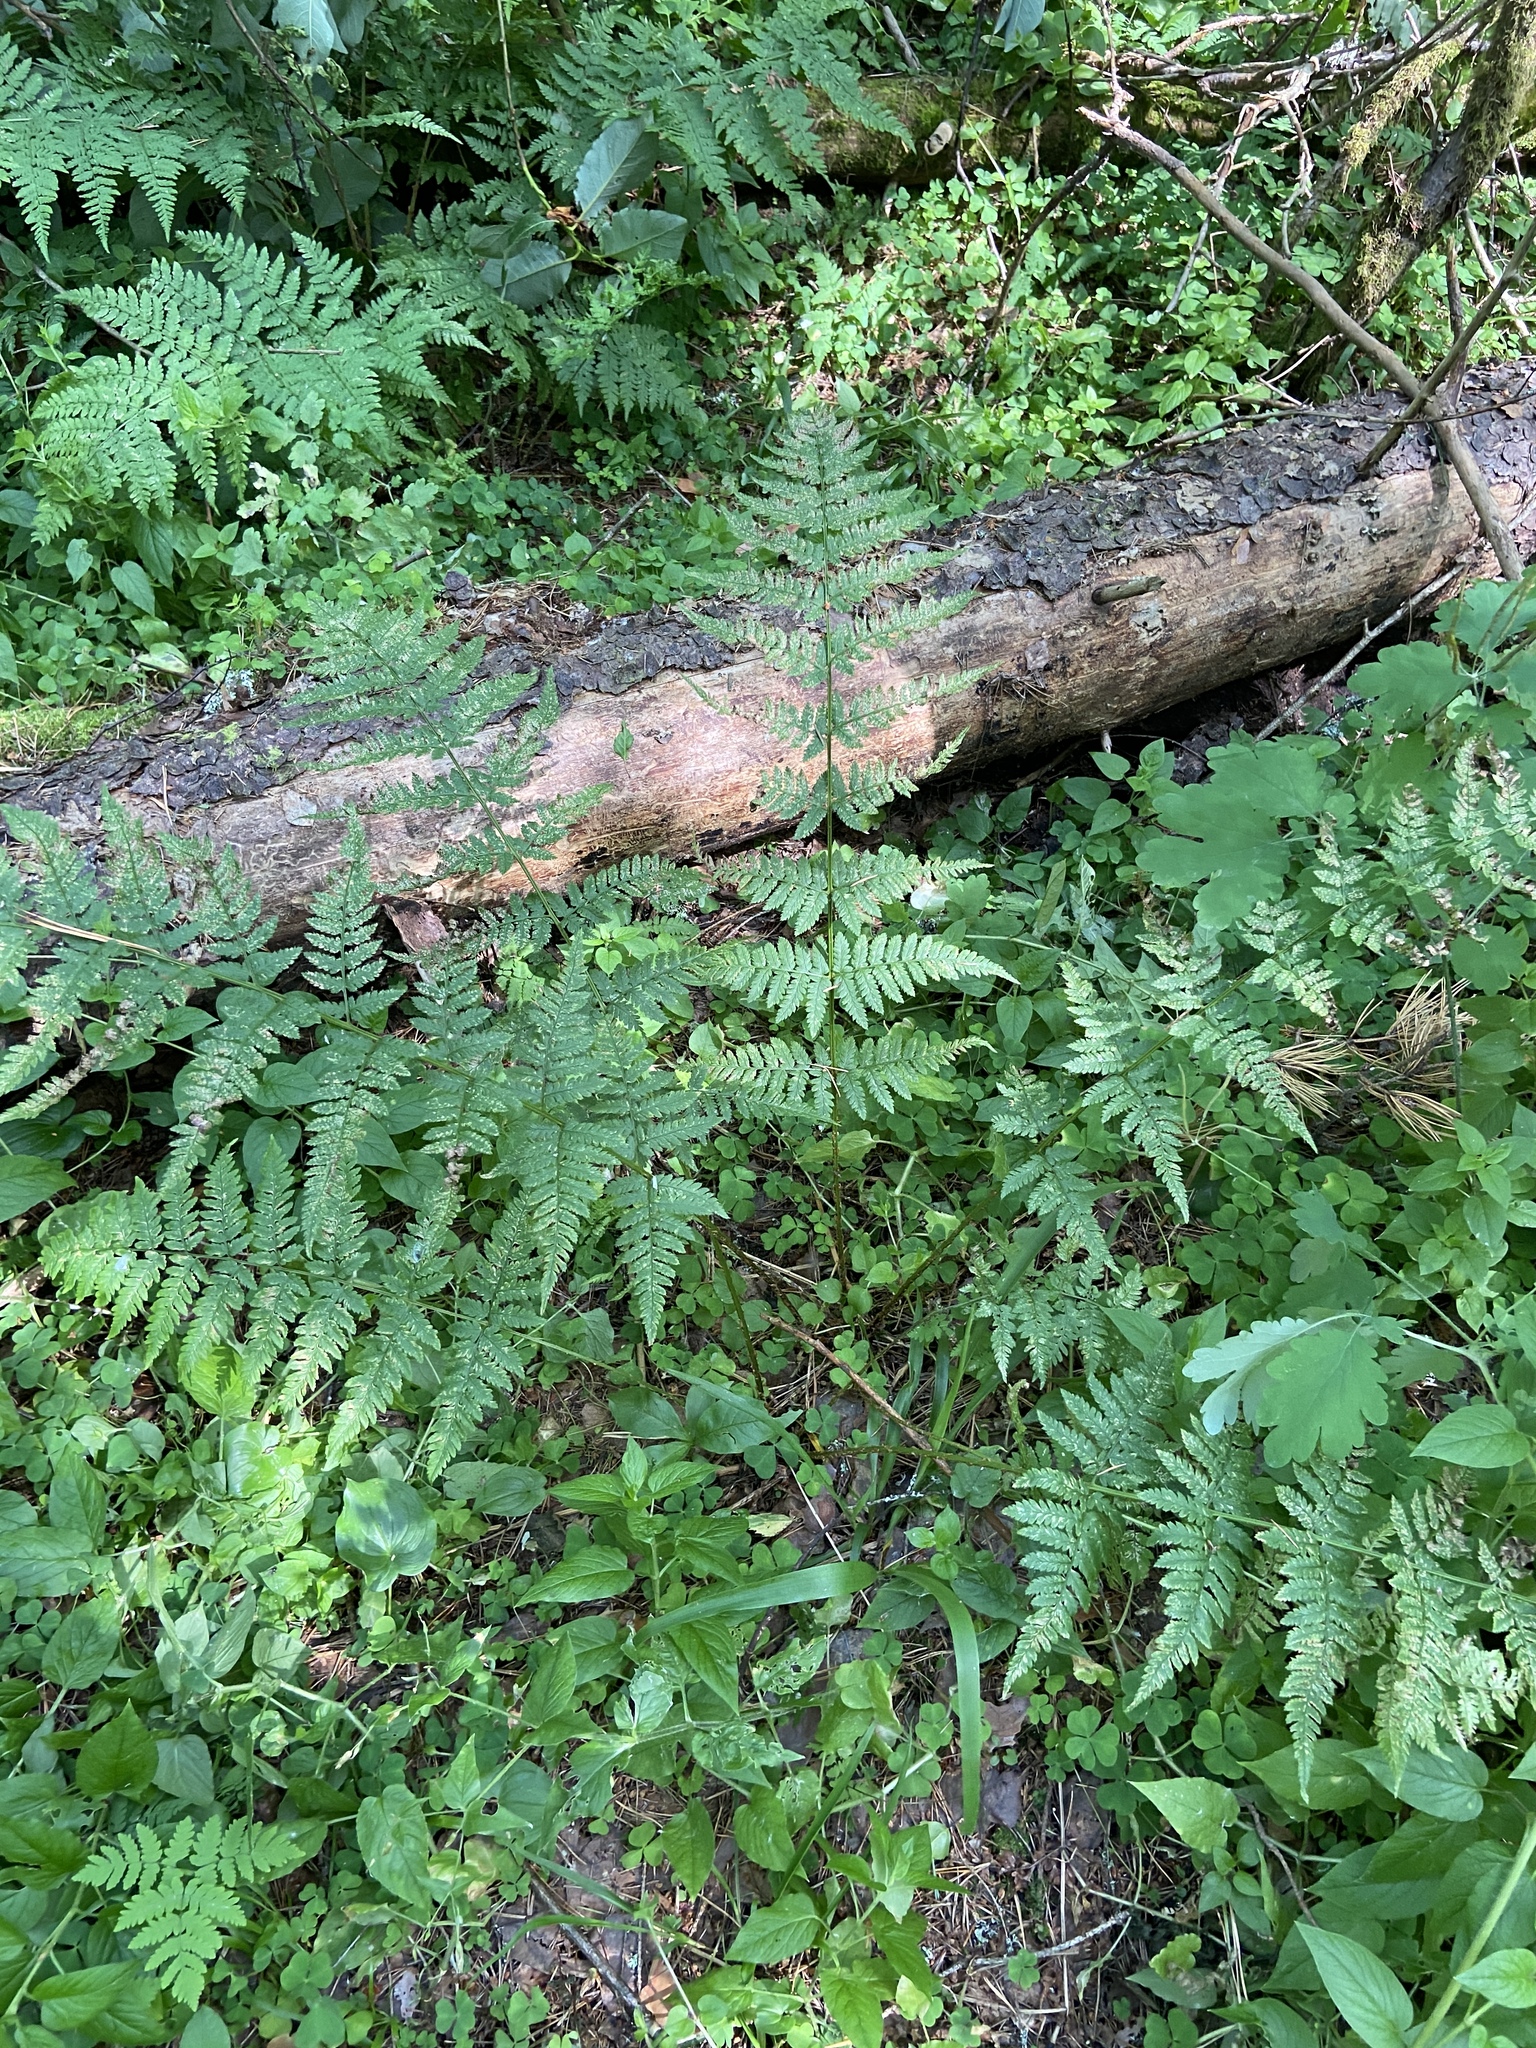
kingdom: Plantae
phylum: Tracheophyta
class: Polypodiopsida
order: Polypodiales
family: Dryopteridaceae
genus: Dryopteris
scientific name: Dryopteris carthusiana
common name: Narrow buckler-fern
